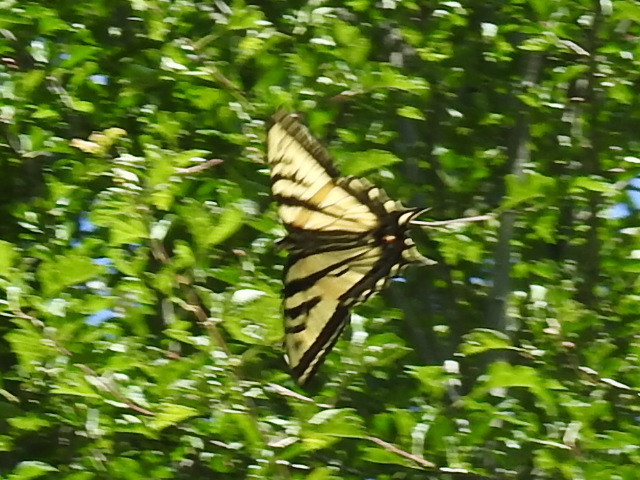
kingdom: Animalia
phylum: Arthropoda
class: Insecta
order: Lepidoptera
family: Papilionidae
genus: Papilio
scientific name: Papilio rutulus
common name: Western tiger swallowtail
